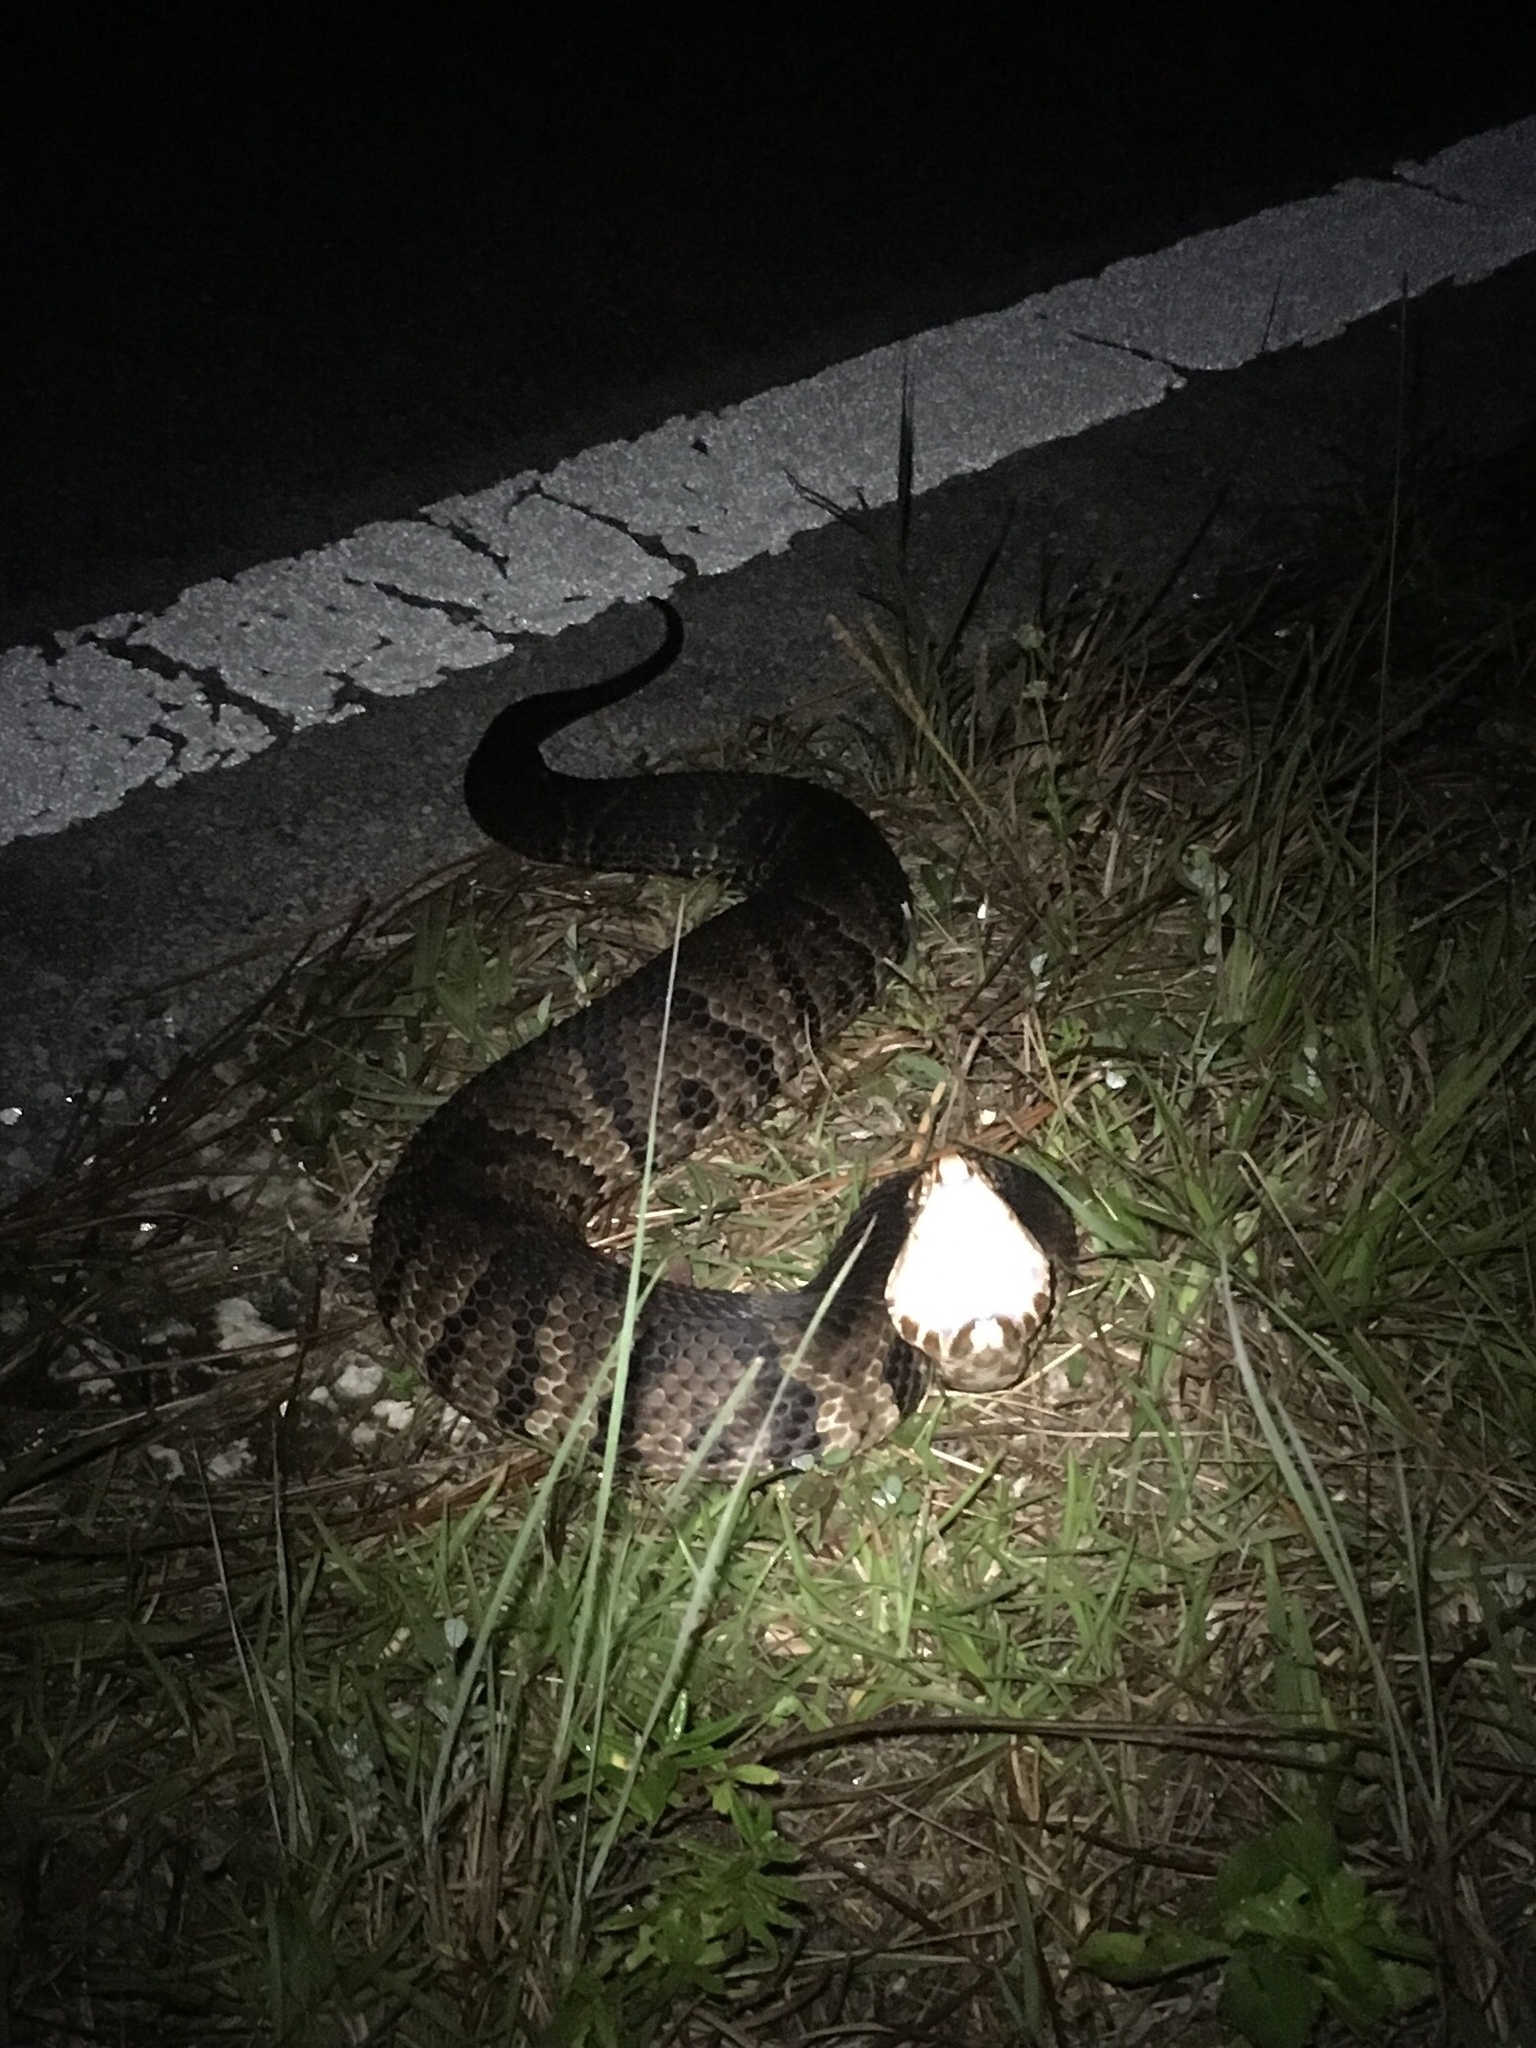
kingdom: Animalia
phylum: Chordata
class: Squamata
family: Viperidae
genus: Agkistrodon
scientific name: Agkistrodon conanti
